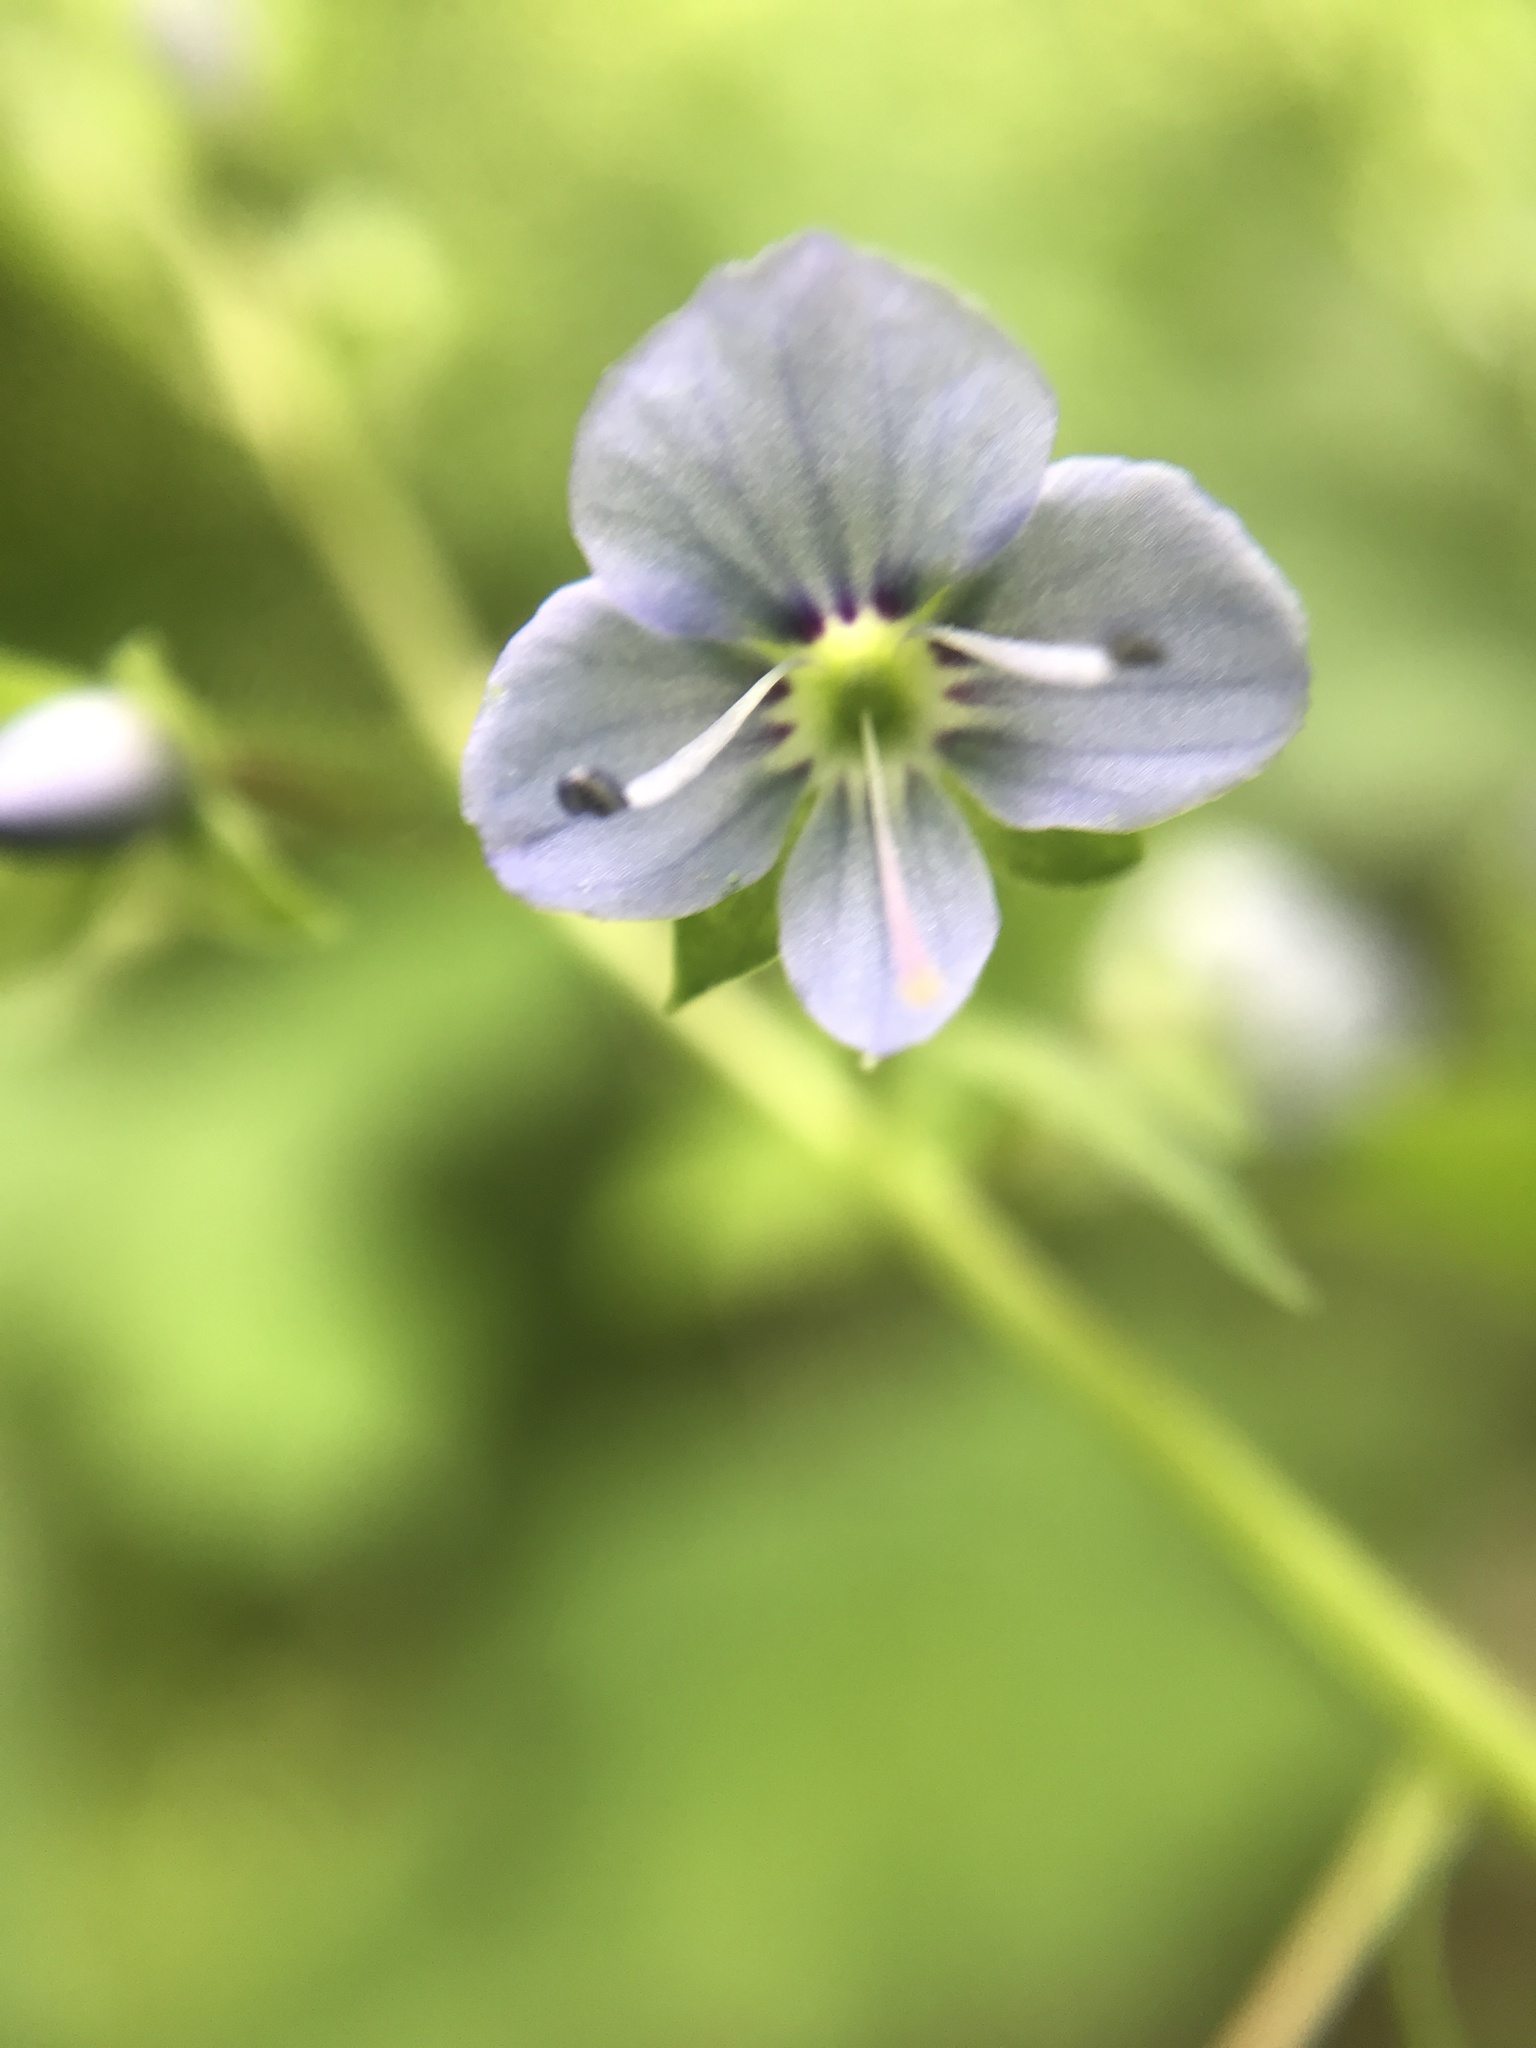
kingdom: Plantae
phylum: Tracheophyta
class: Magnoliopsida
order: Lamiales
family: Plantaginaceae
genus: Veronica
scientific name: Veronica americana
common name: American brooklime
